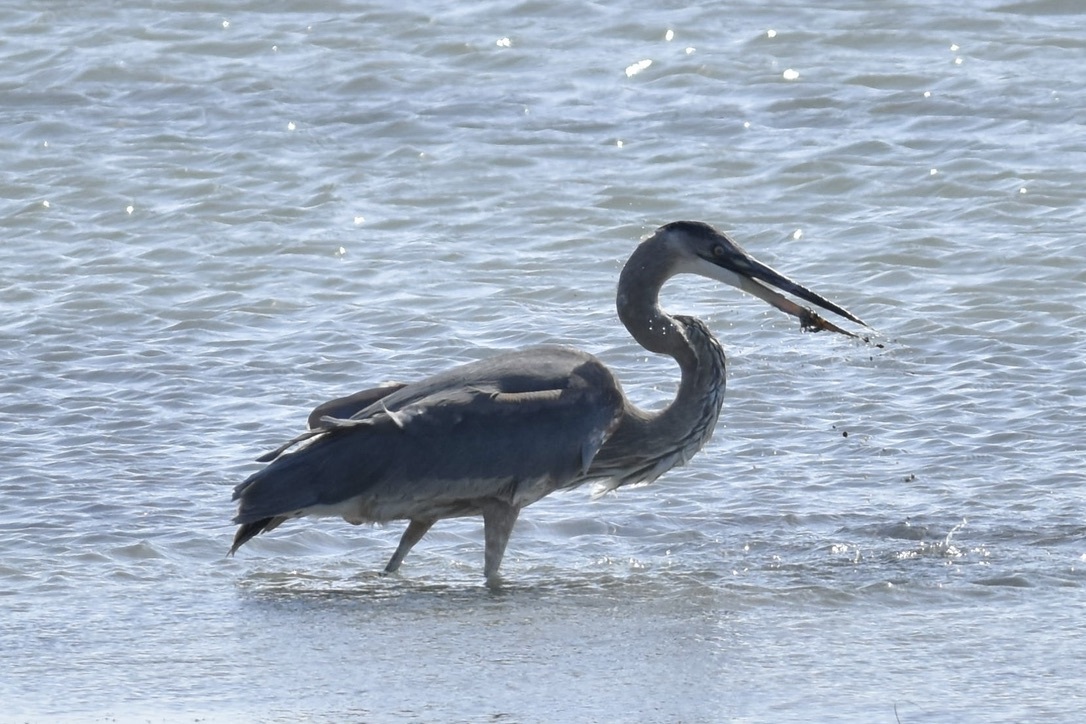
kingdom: Animalia
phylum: Chordata
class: Aves
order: Pelecaniformes
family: Ardeidae
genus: Ardea
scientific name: Ardea herodias
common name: Great blue heron
